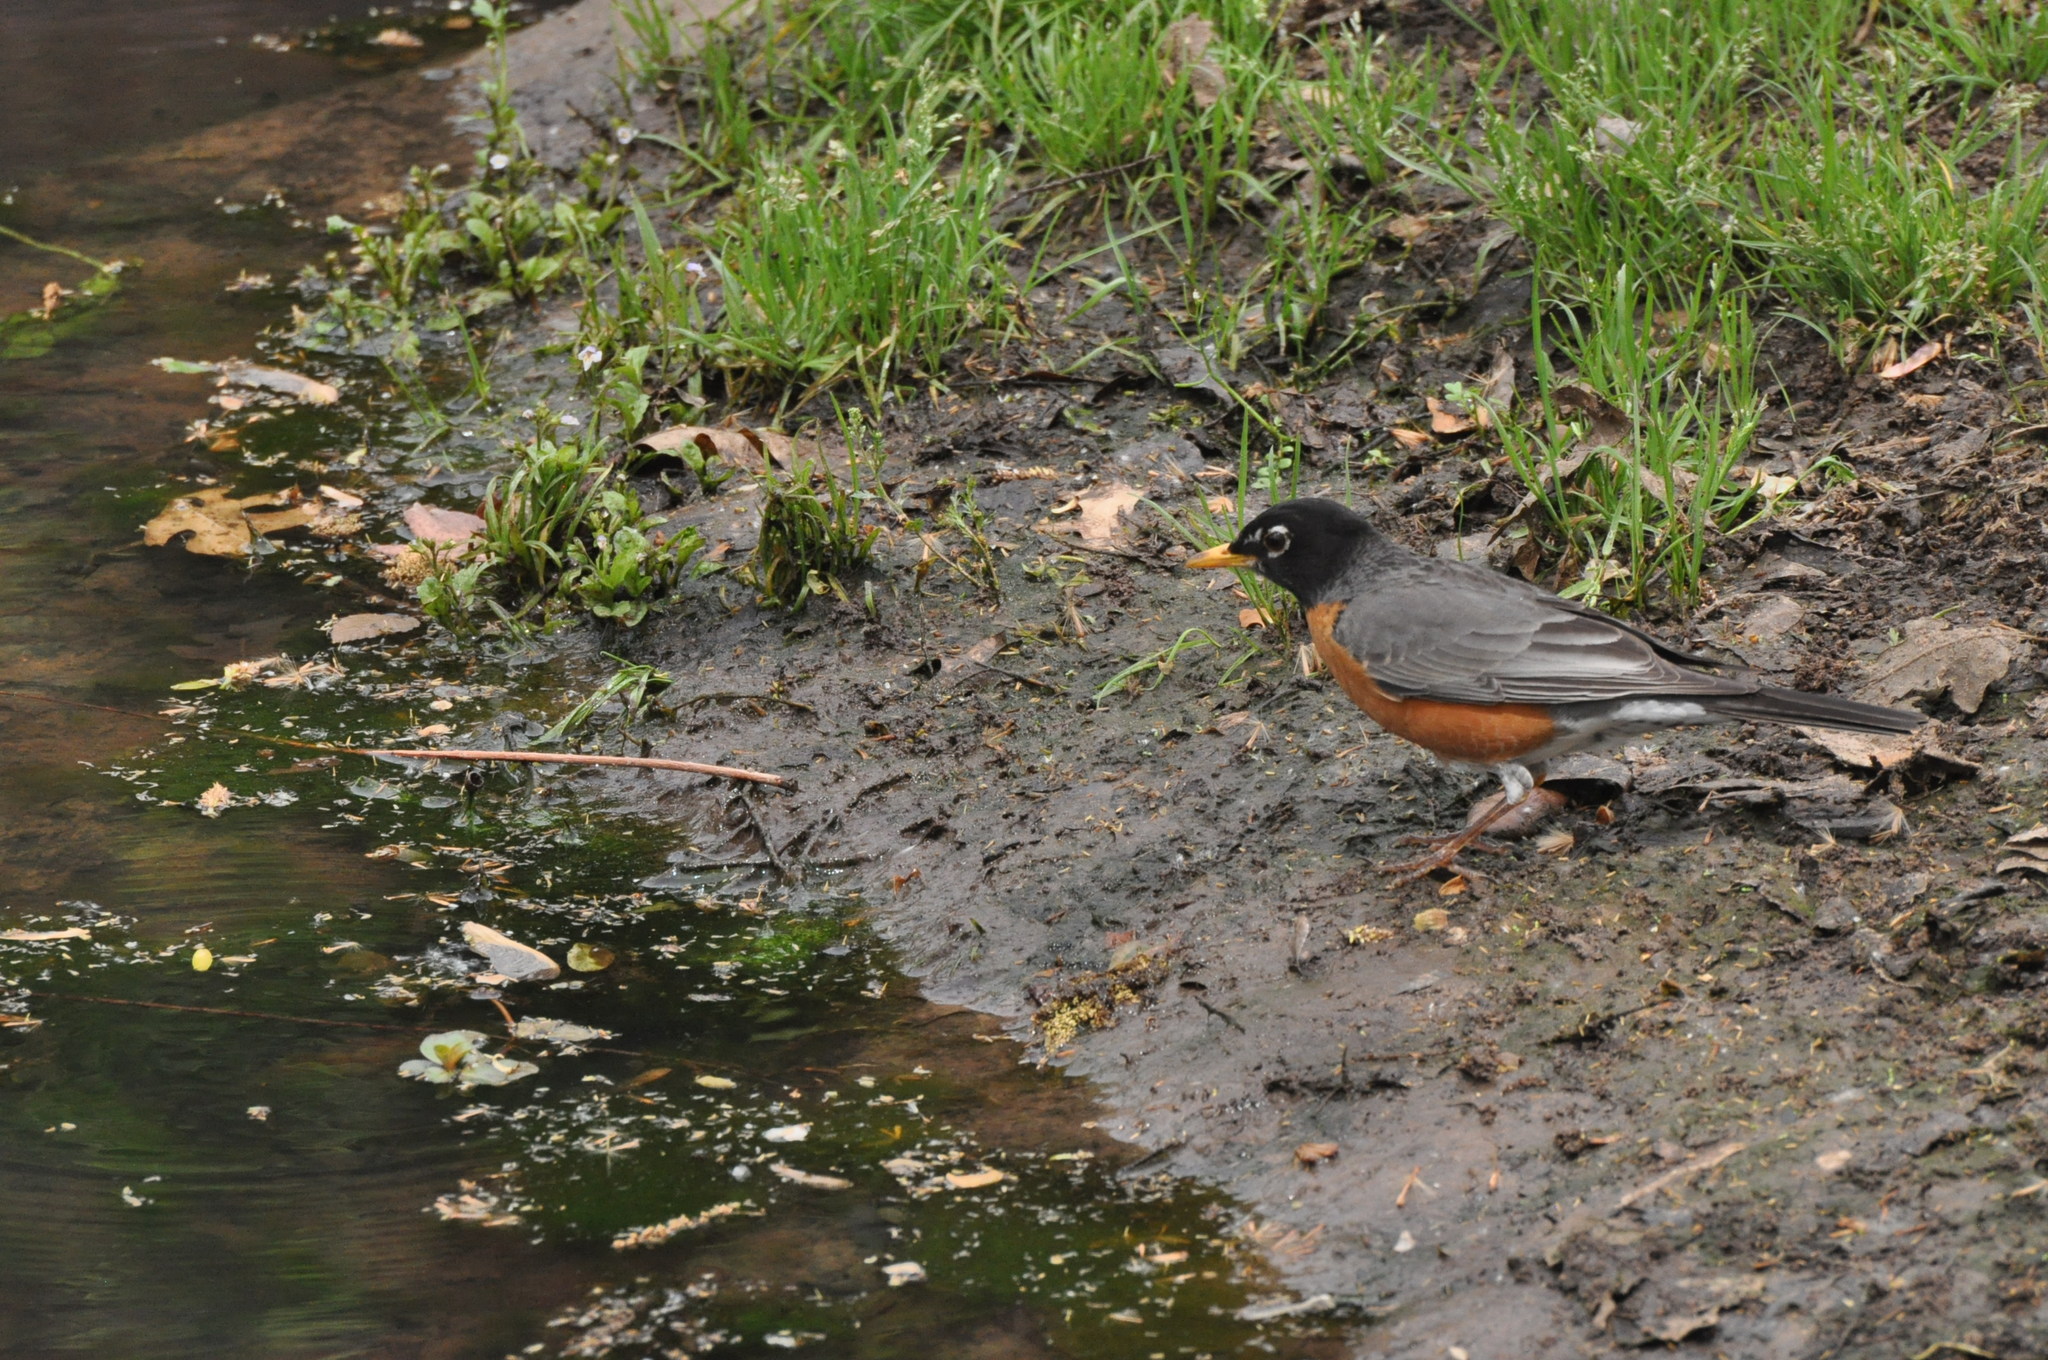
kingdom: Animalia
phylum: Chordata
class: Aves
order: Passeriformes
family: Turdidae
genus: Turdus
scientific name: Turdus migratorius
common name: American robin
